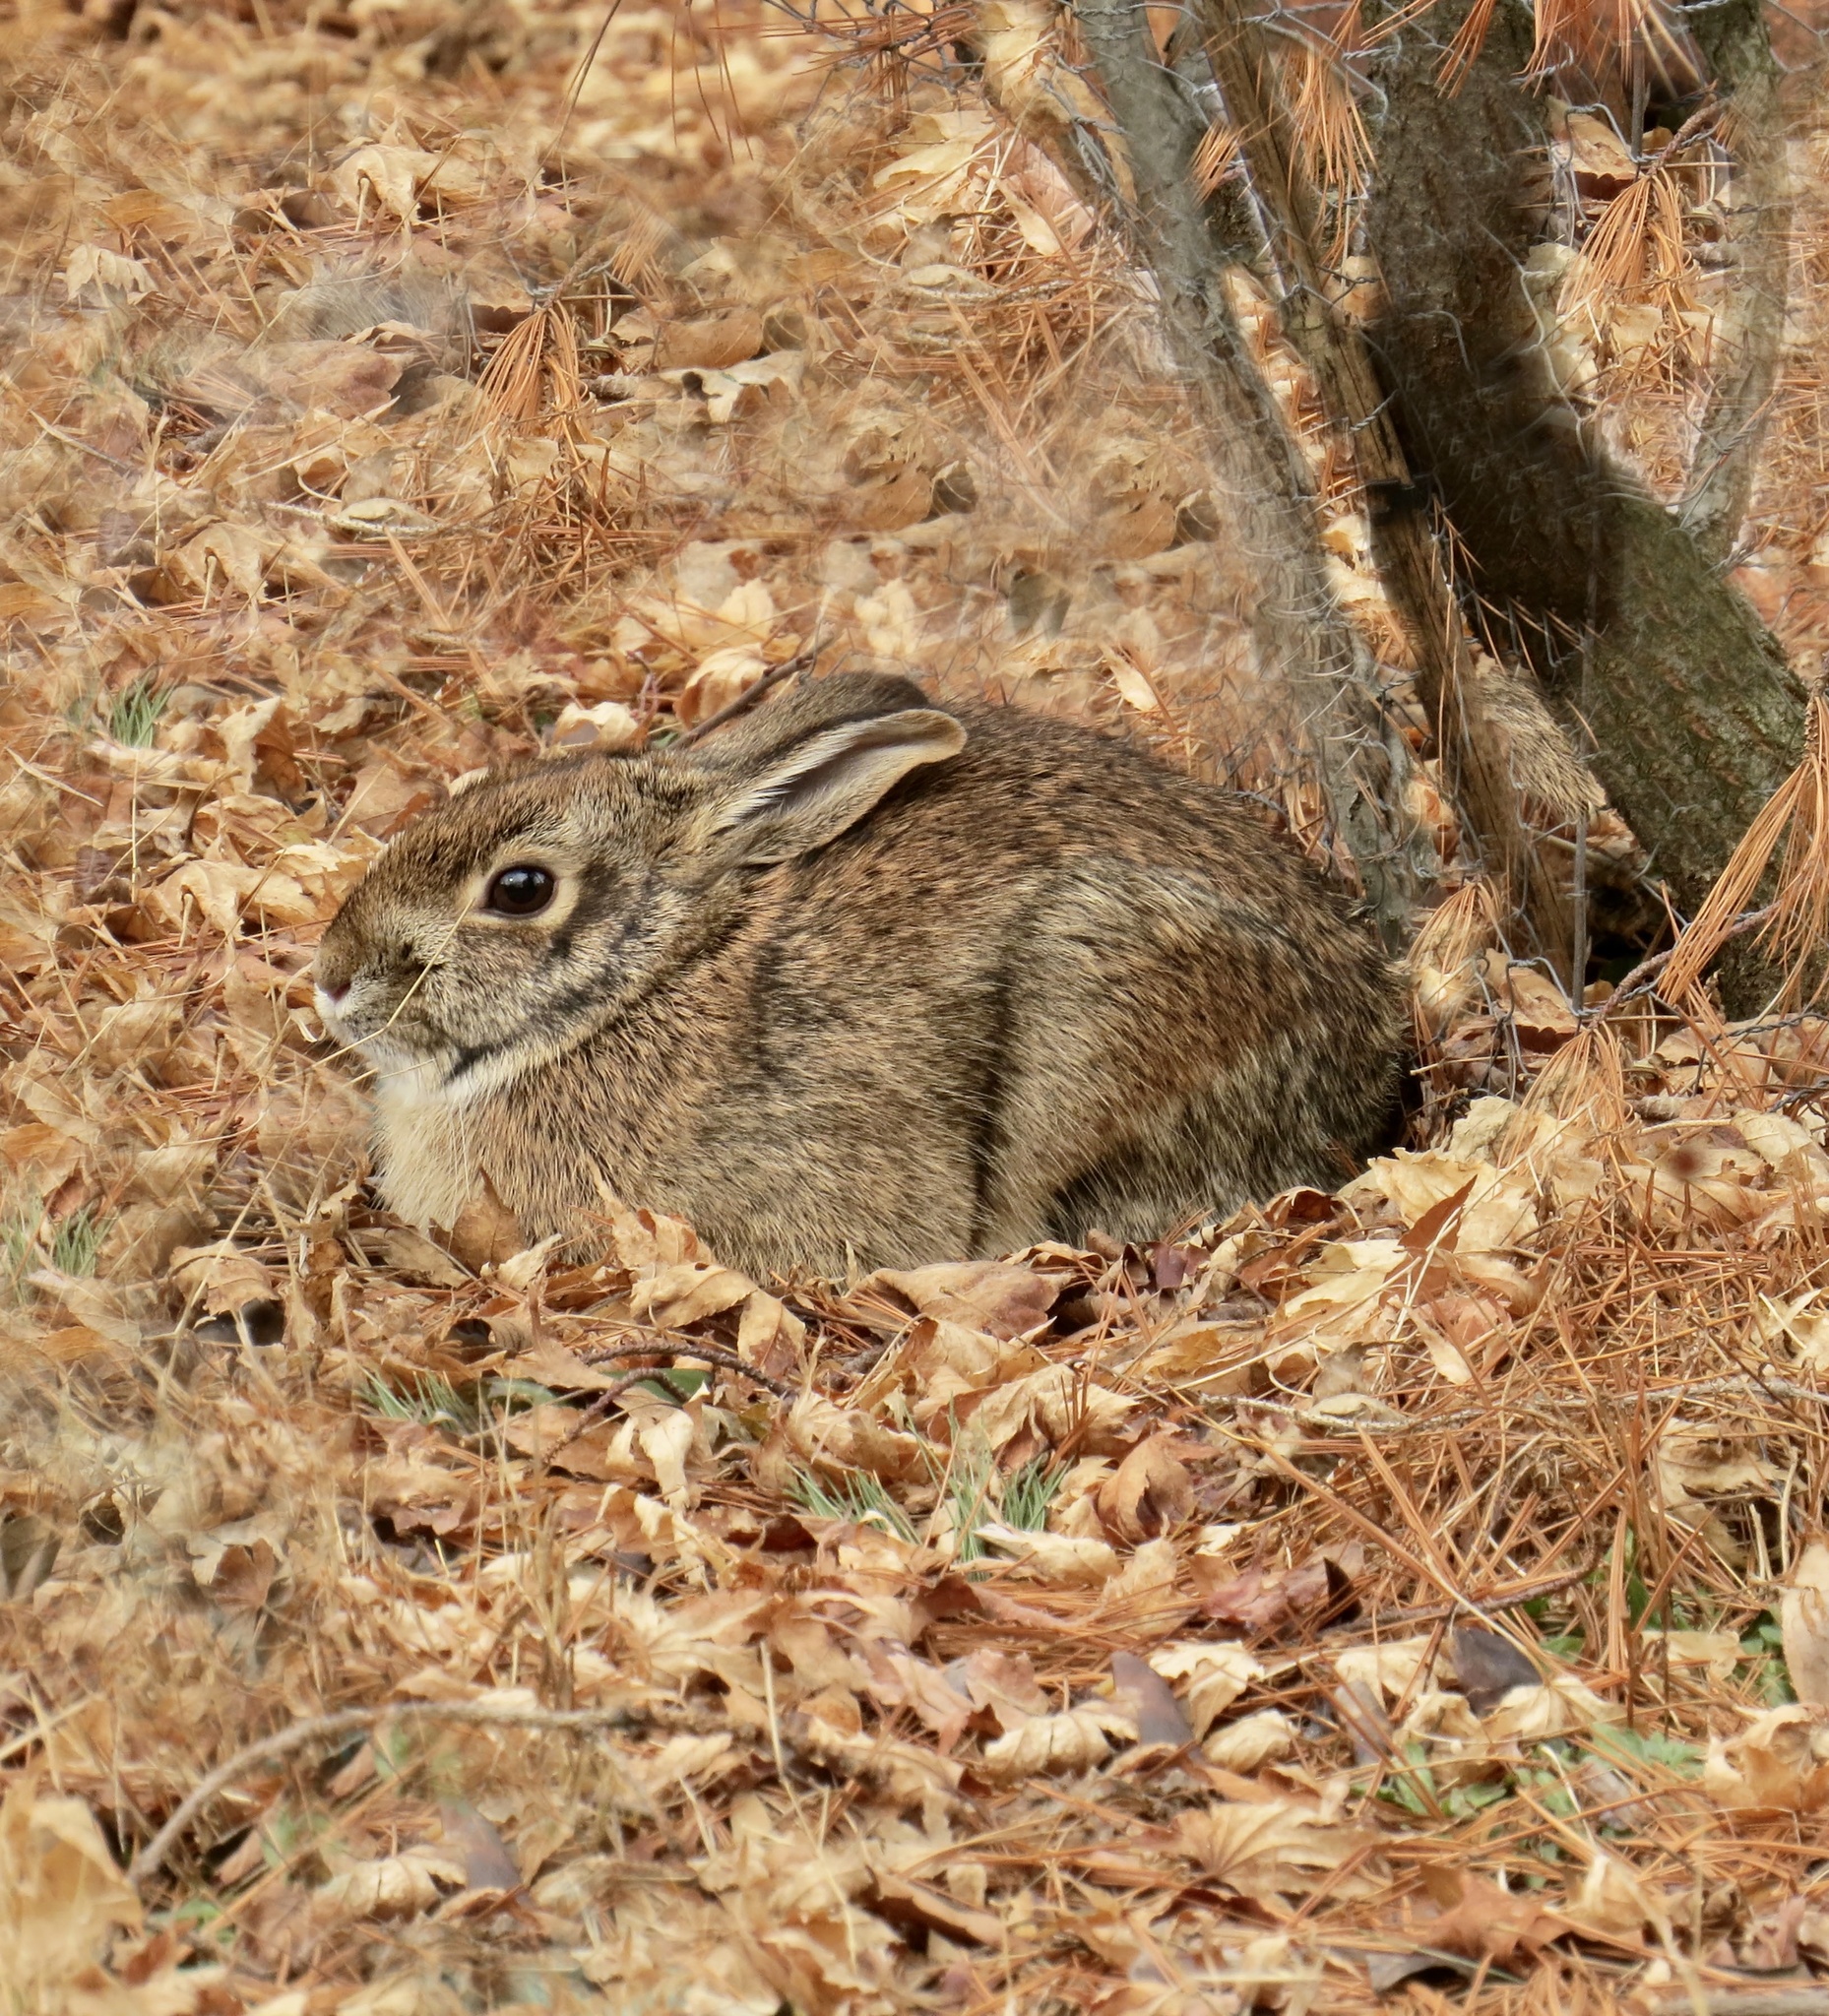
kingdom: Animalia
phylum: Chordata
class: Mammalia
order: Lagomorpha
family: Leporidae
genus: Sylvilagus
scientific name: Sylvilagus floridanus
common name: Eastern cottontail
